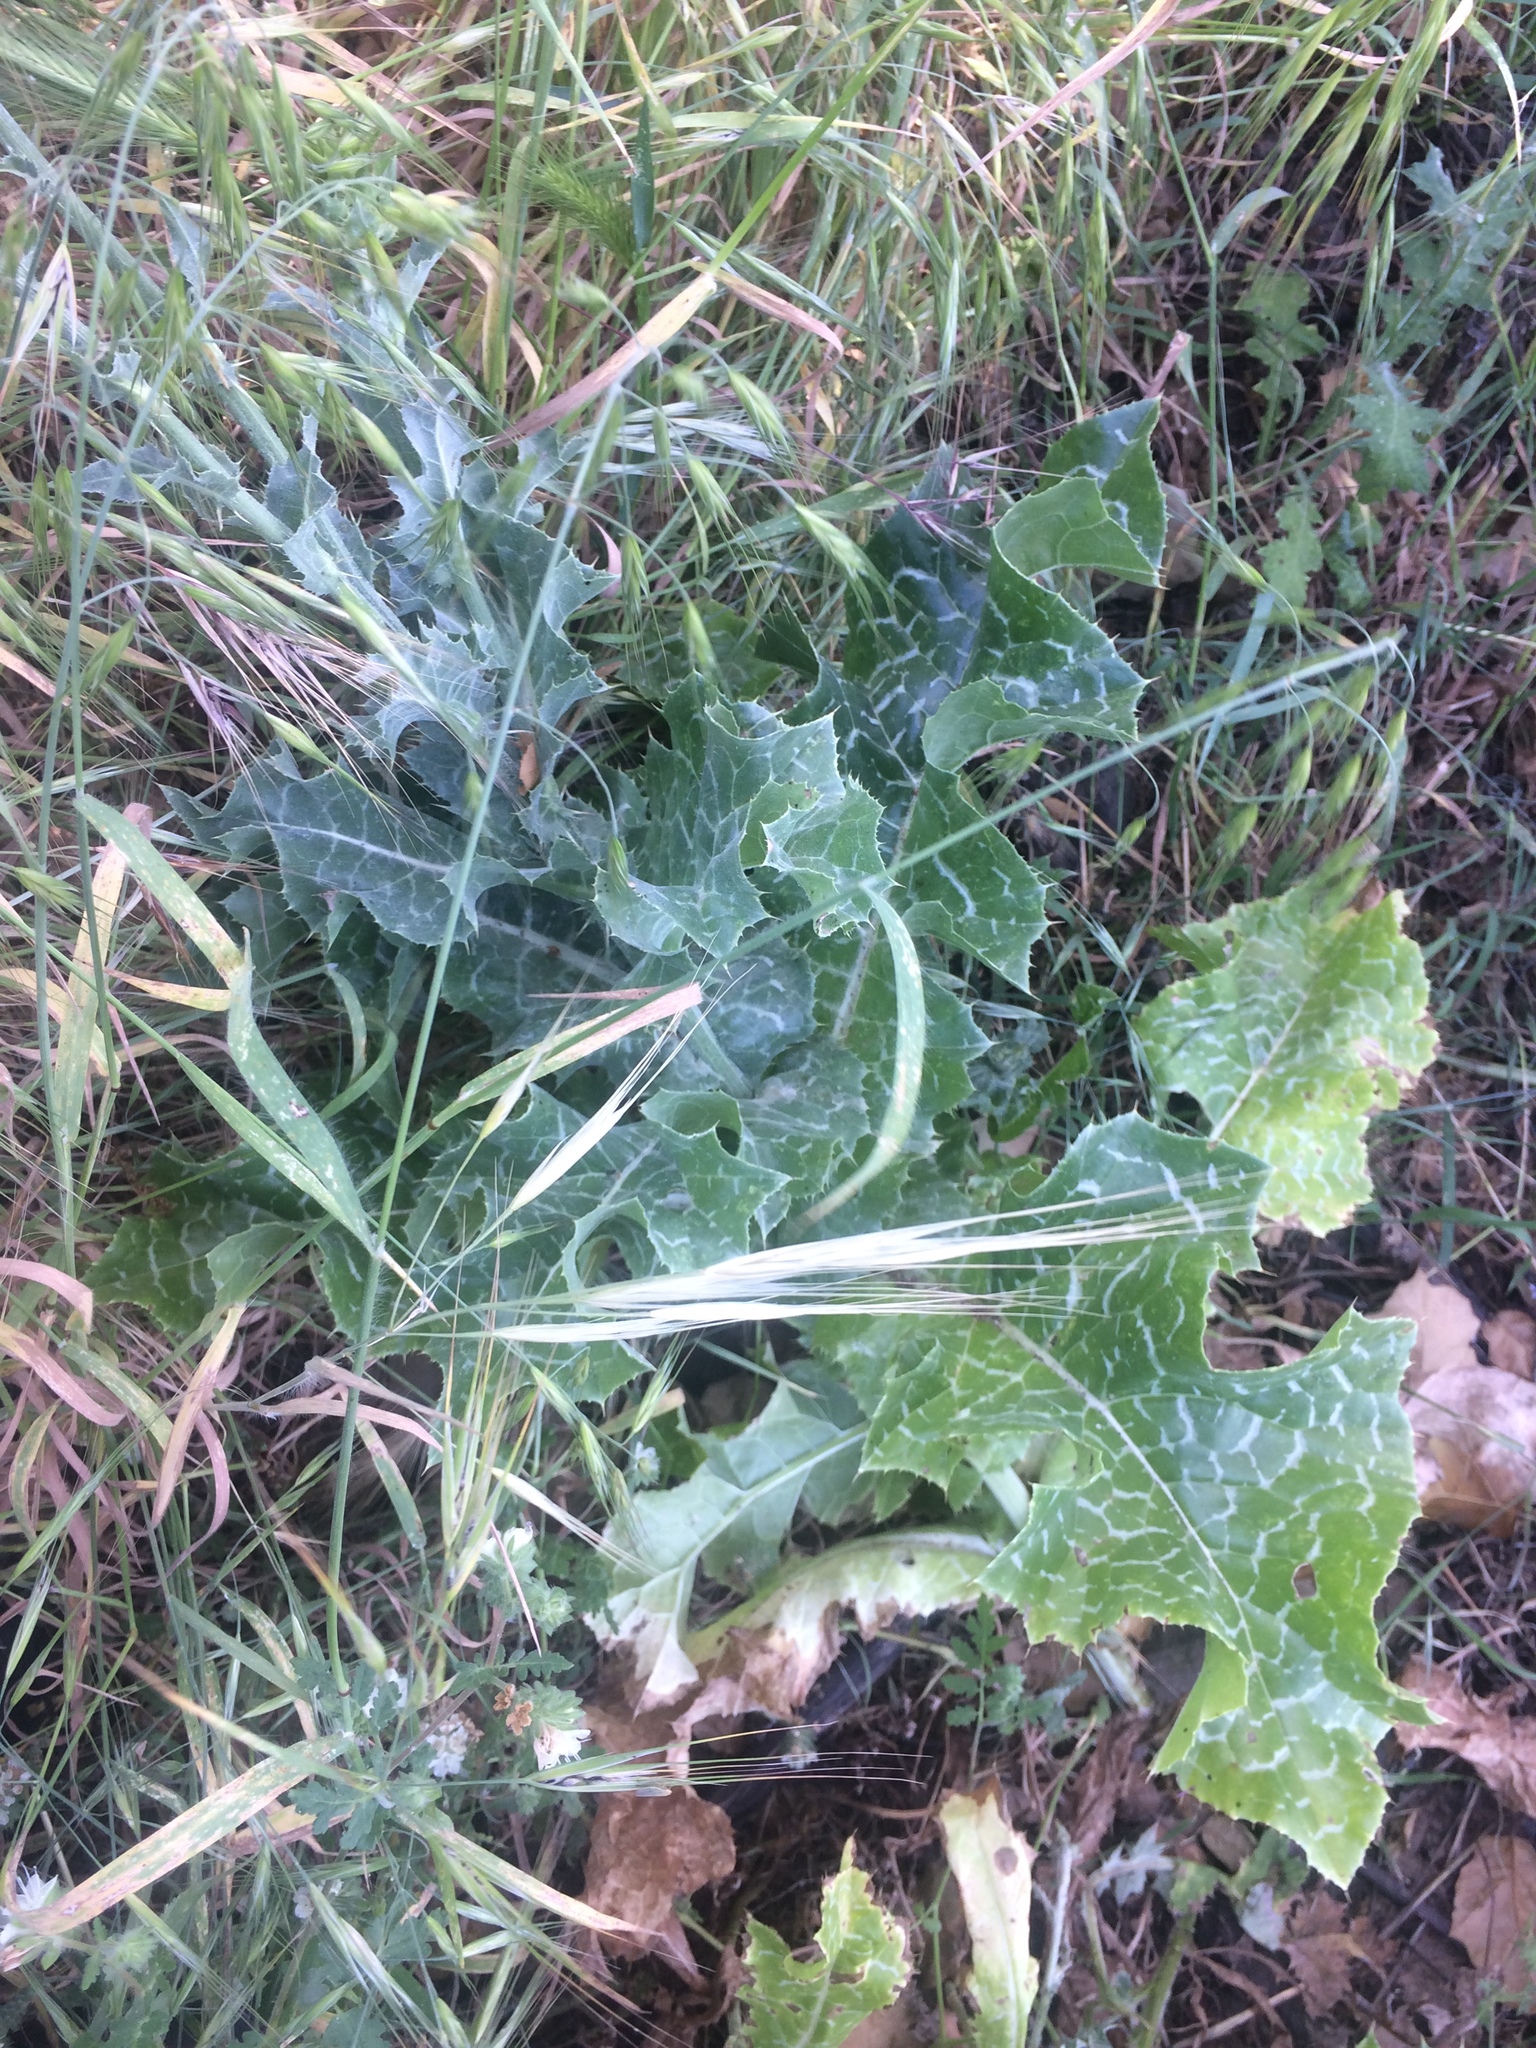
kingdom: Plantae
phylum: Tracheophyta
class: Magnoliopsida
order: Asterales
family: Asteraceae
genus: Silybum
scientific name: Silybum marianum
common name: Milk thistle
